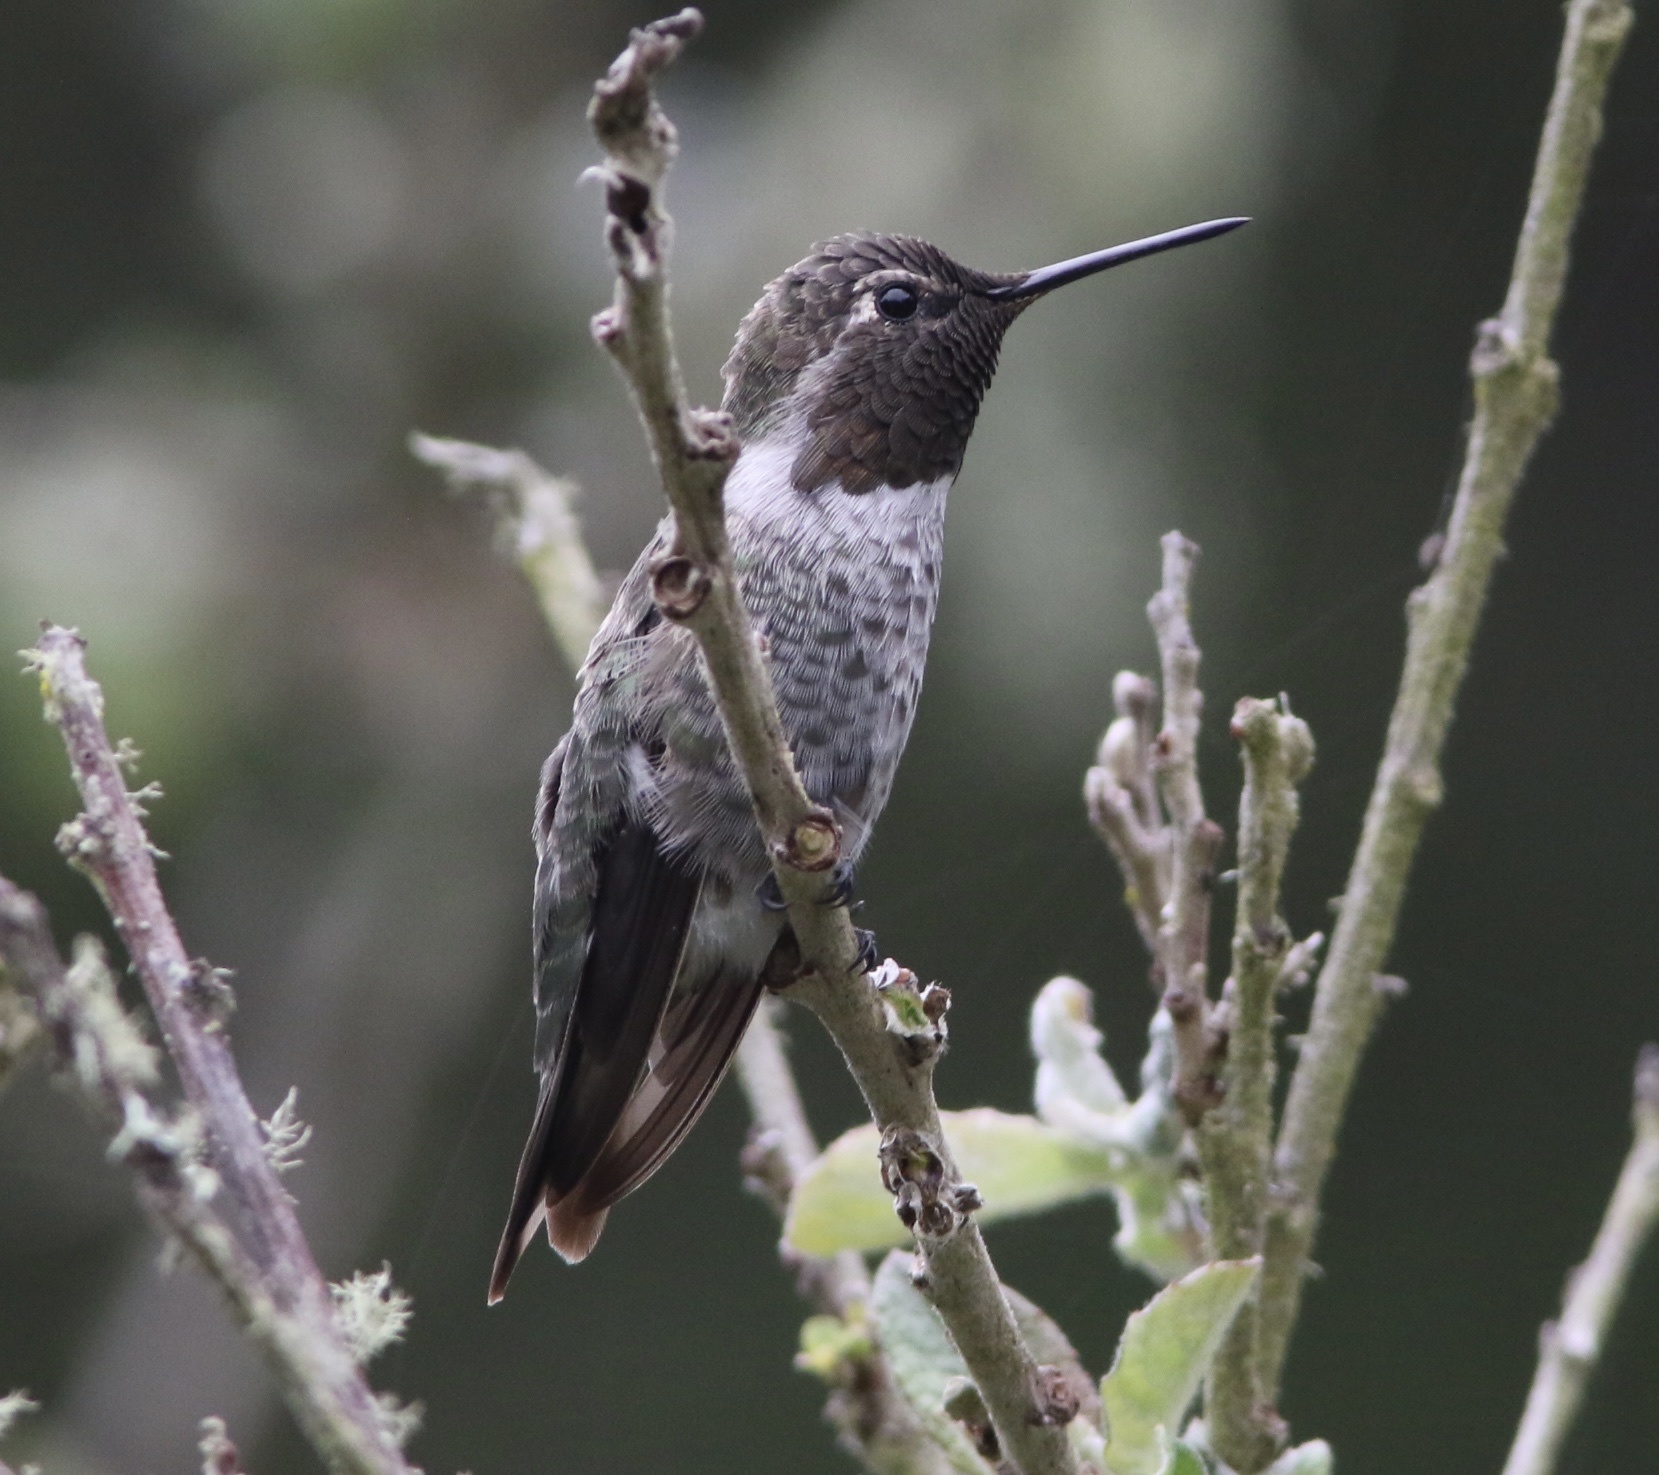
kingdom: Animalia
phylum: Chordata
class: Aves
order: Apodiformes
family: Trochilidae
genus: Calypte
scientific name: Calypte anna
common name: Anna's hummingbird
